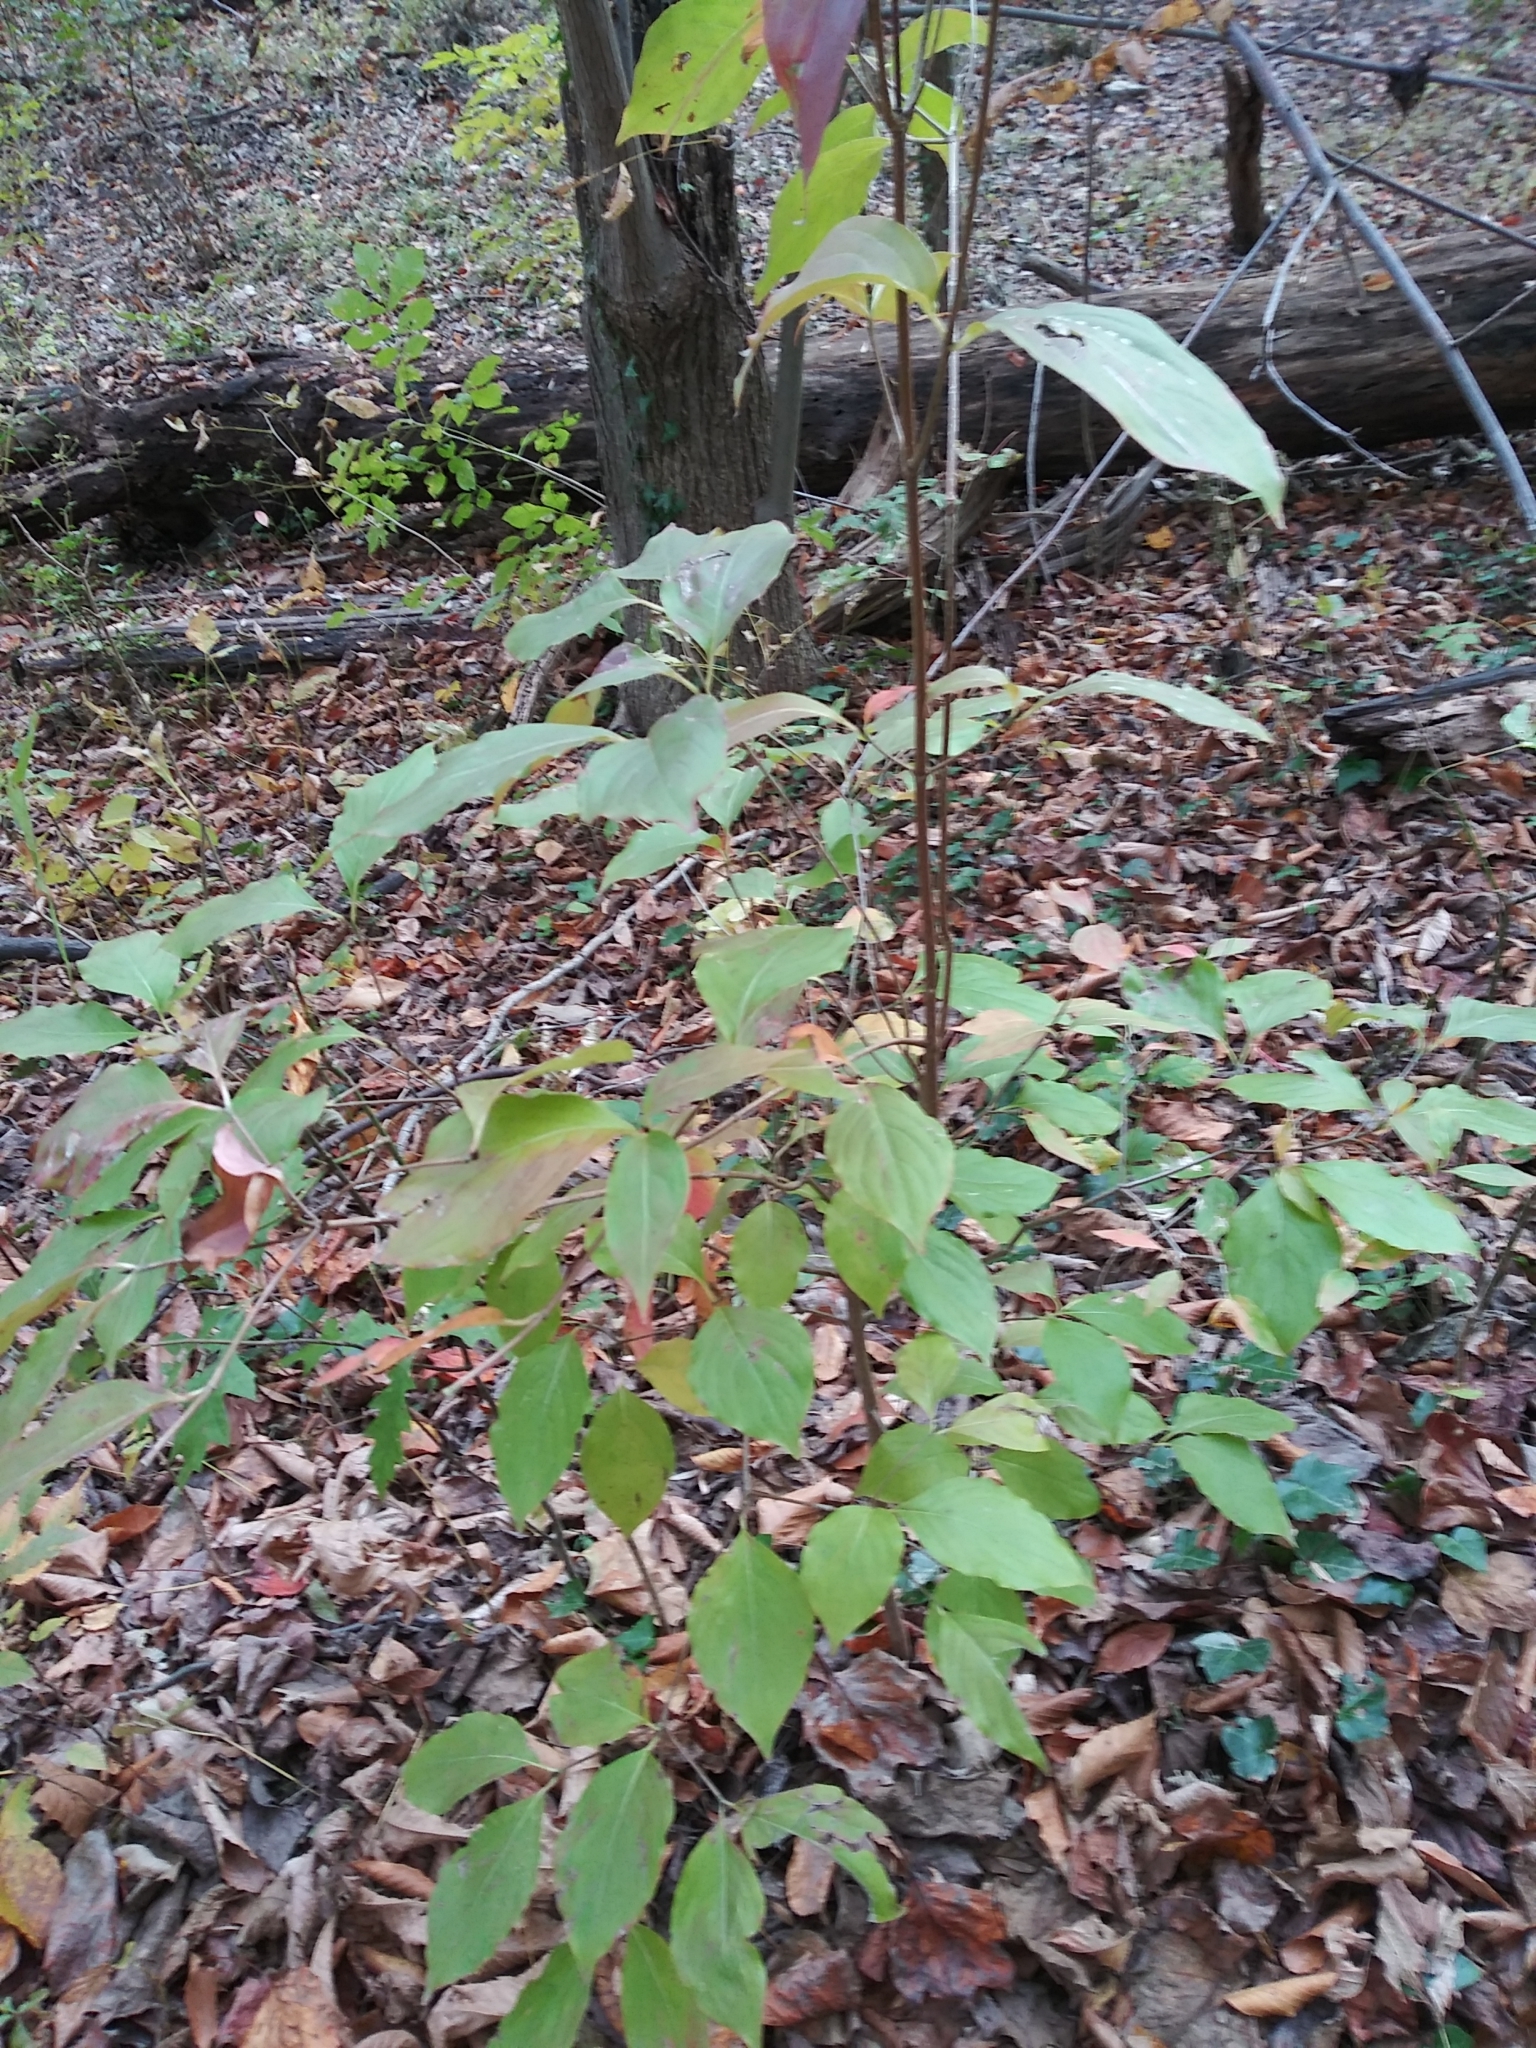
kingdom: Plantae
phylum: Tracheophyta
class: Magnoliopsida
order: Cornales
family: Cornaceae
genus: Cornus
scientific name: Cornus florida
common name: Flowering dogwood
